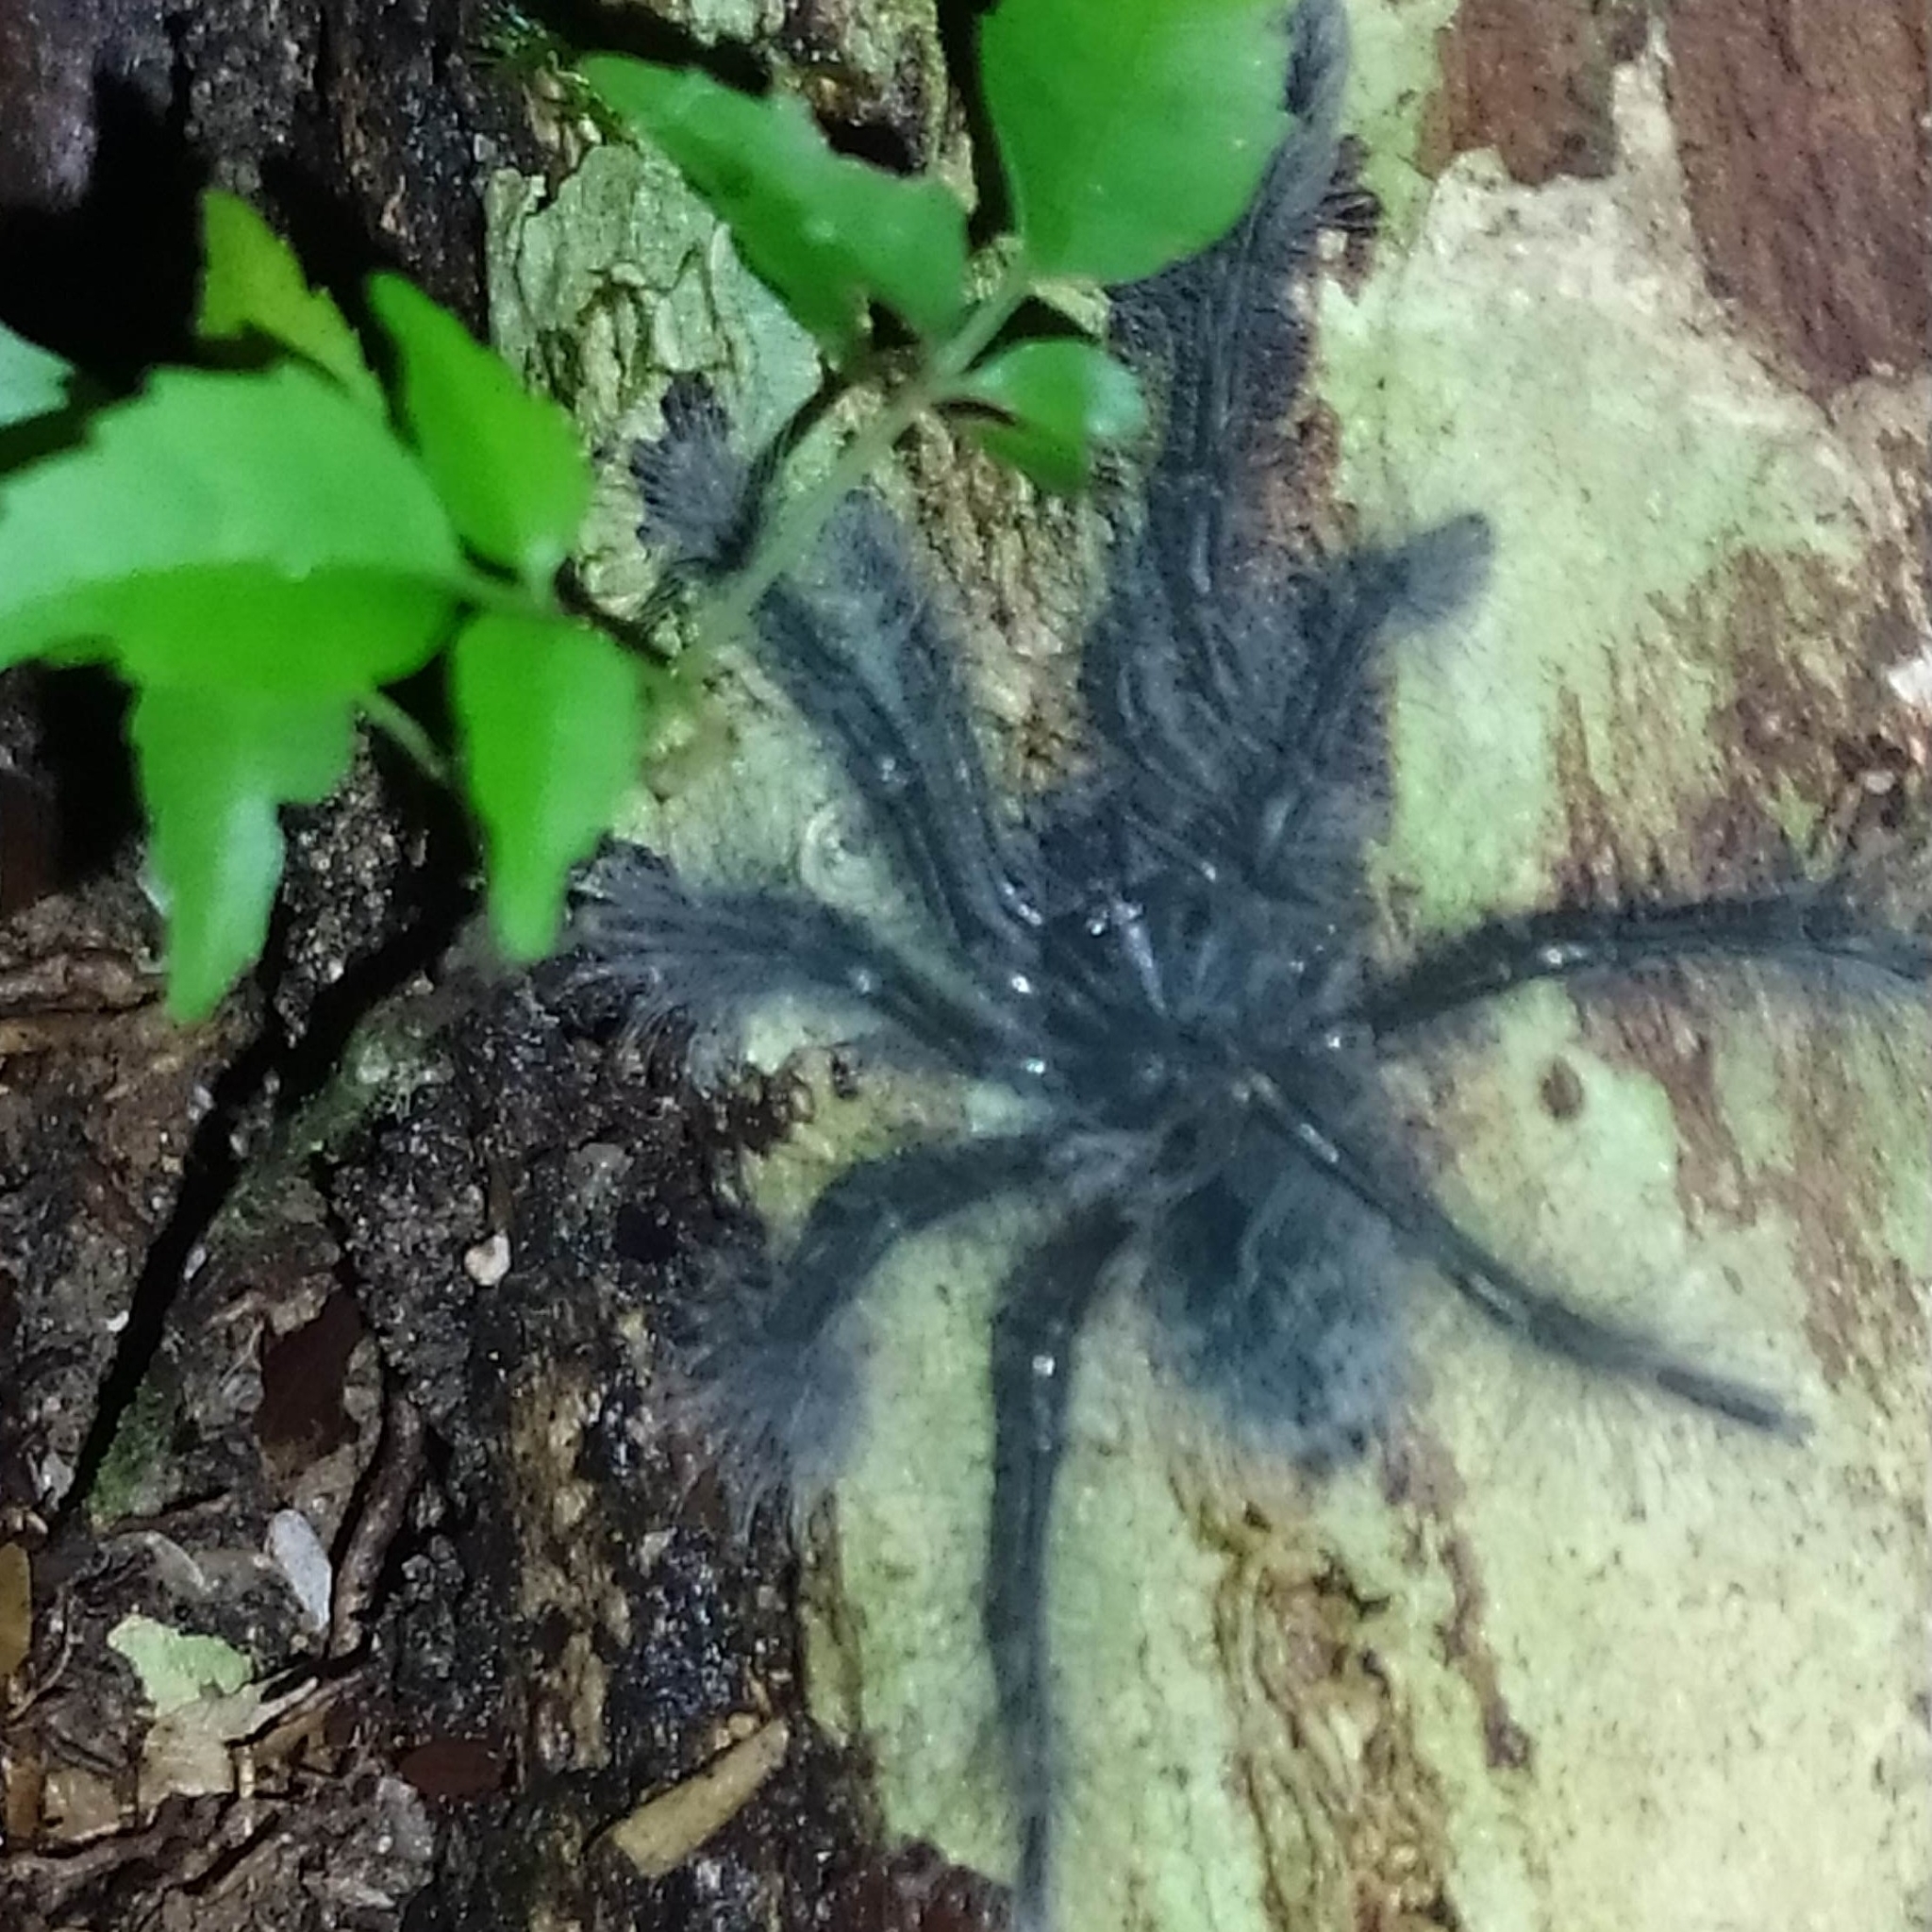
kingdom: Animalia
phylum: Arthropoda
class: Arachnida
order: Araneae
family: Theraphosidae
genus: Theraphosa
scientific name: Theraphosa blondi
